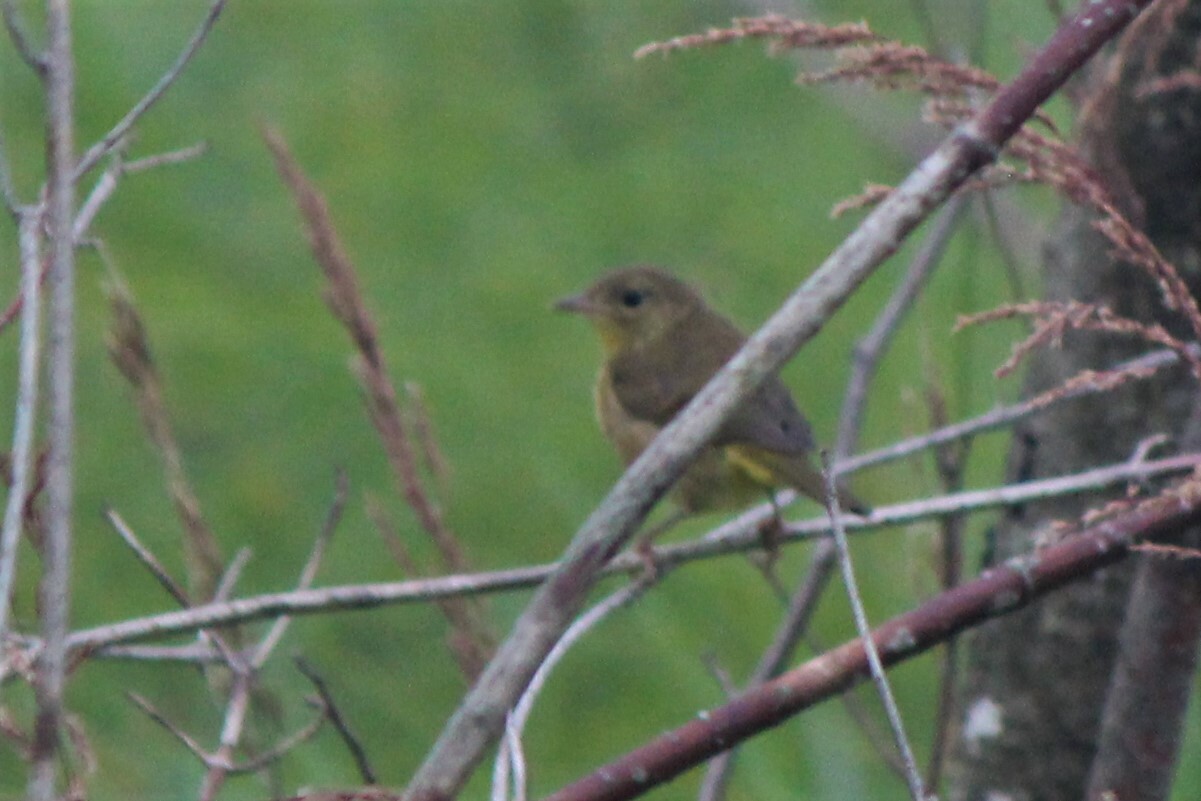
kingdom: Animalia
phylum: Chordata
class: Aves
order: Passeriformes
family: Parulidae
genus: Geothlypis
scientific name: Geothlypis trichas
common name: Common yellowthroat
